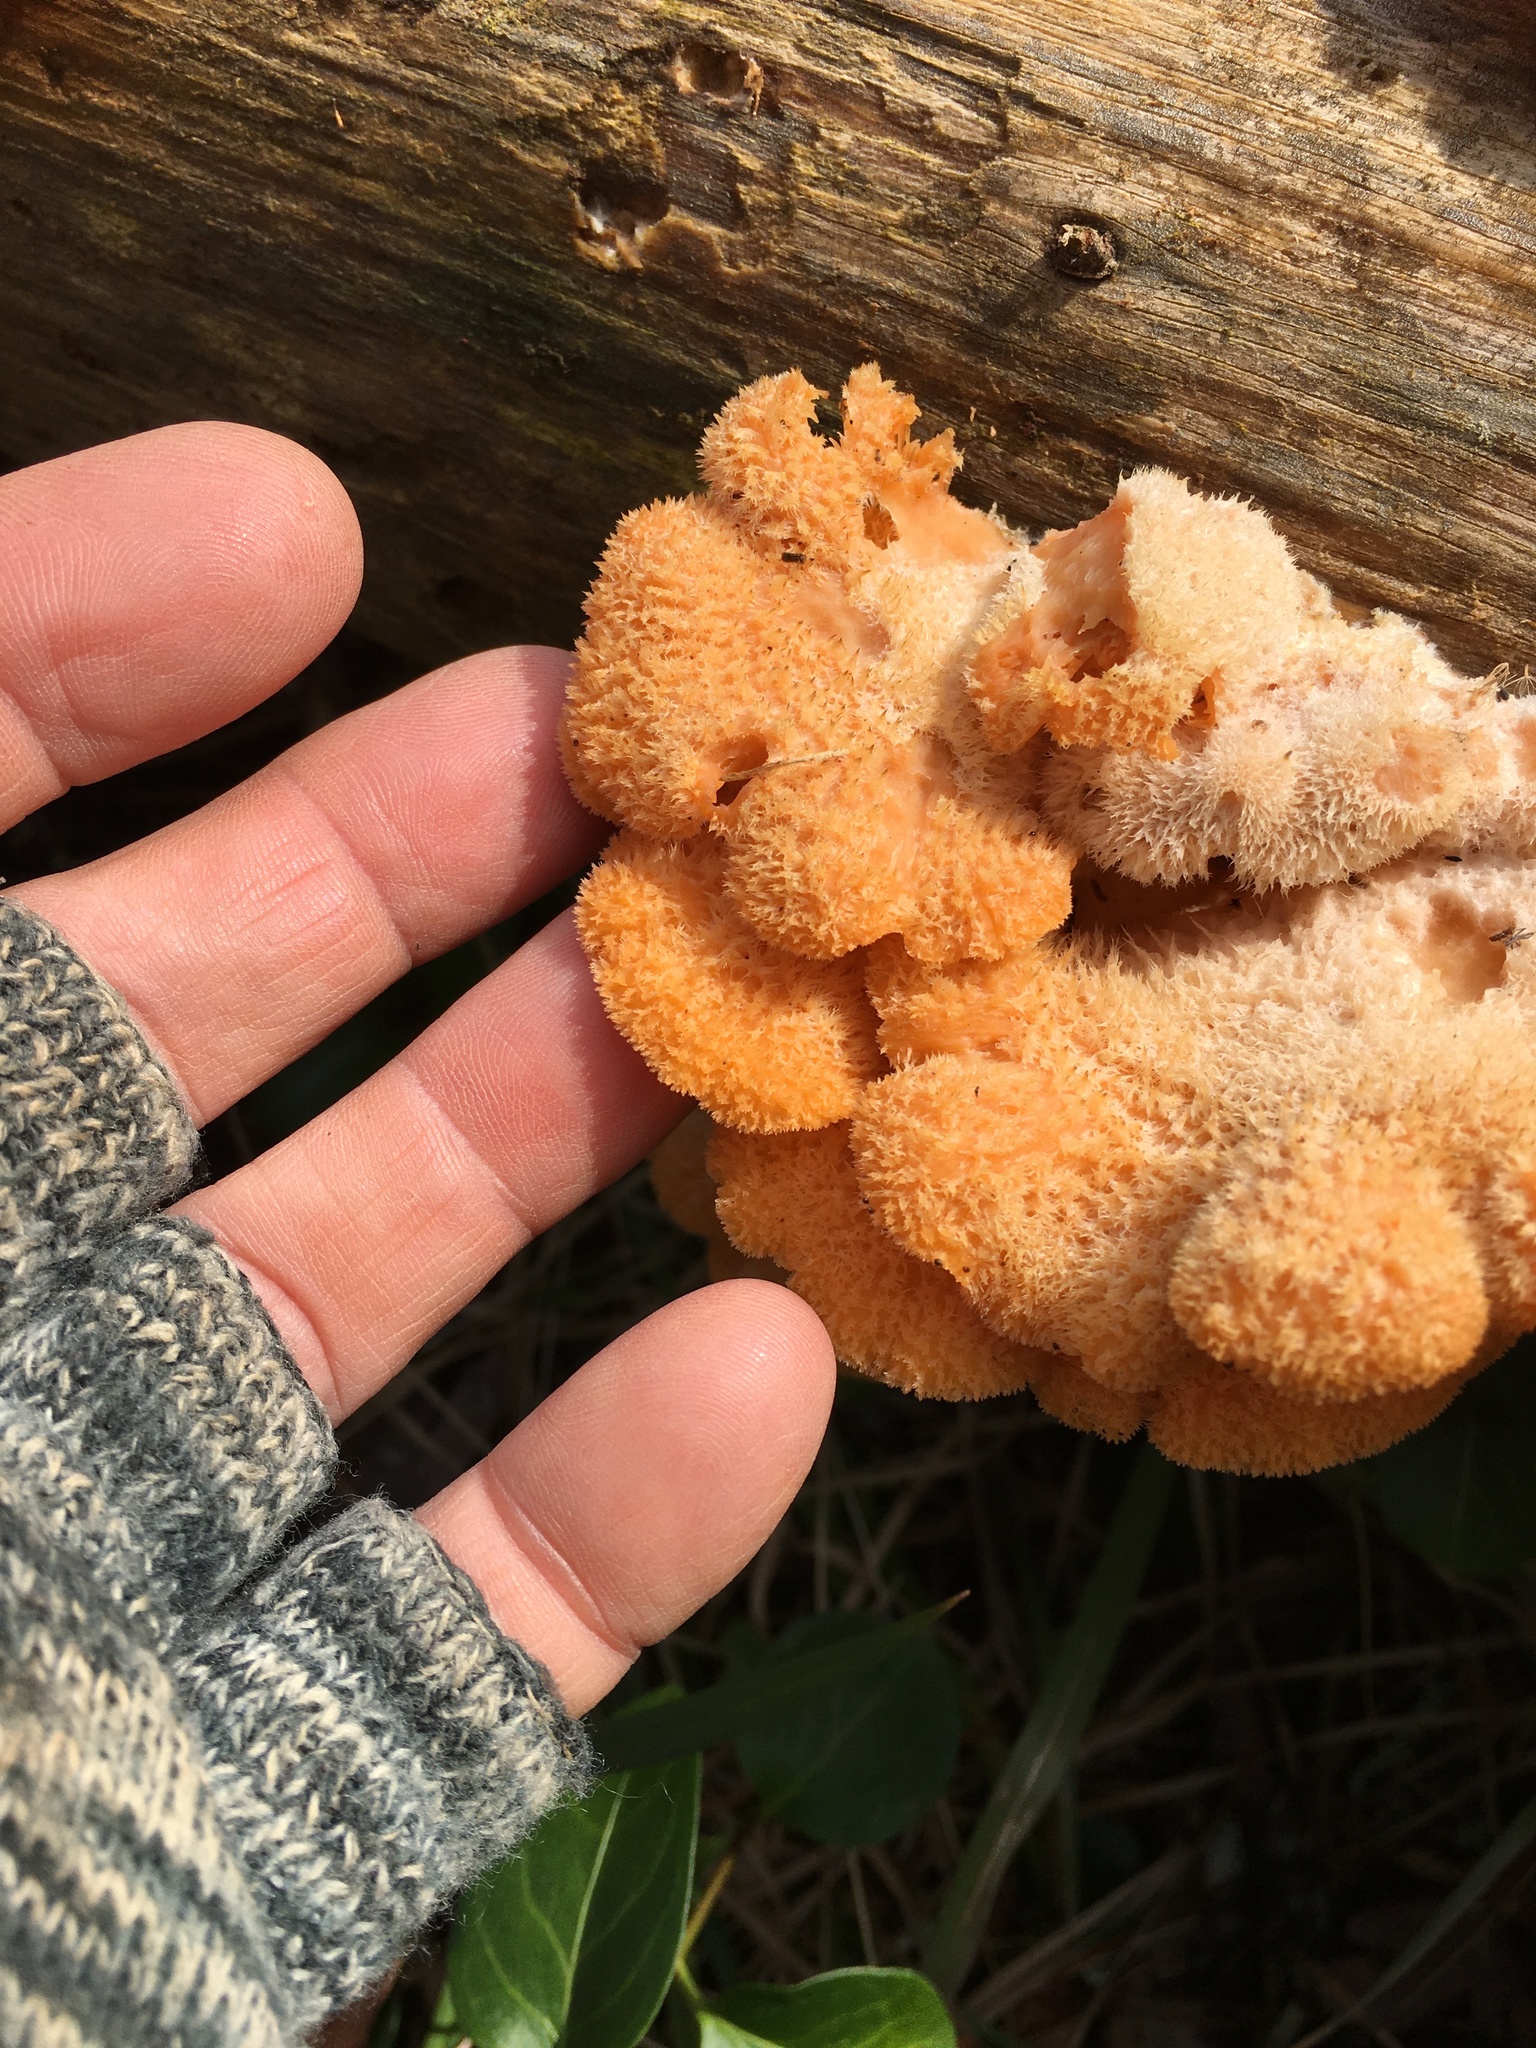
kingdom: Fungi
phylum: Basidiomycota
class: Agaricomycetes
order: Agaricales
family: Phyllotopsidaceae
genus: Phyllotopsis
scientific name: Phyllotopsis nidulans
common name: Orange mock oyster
